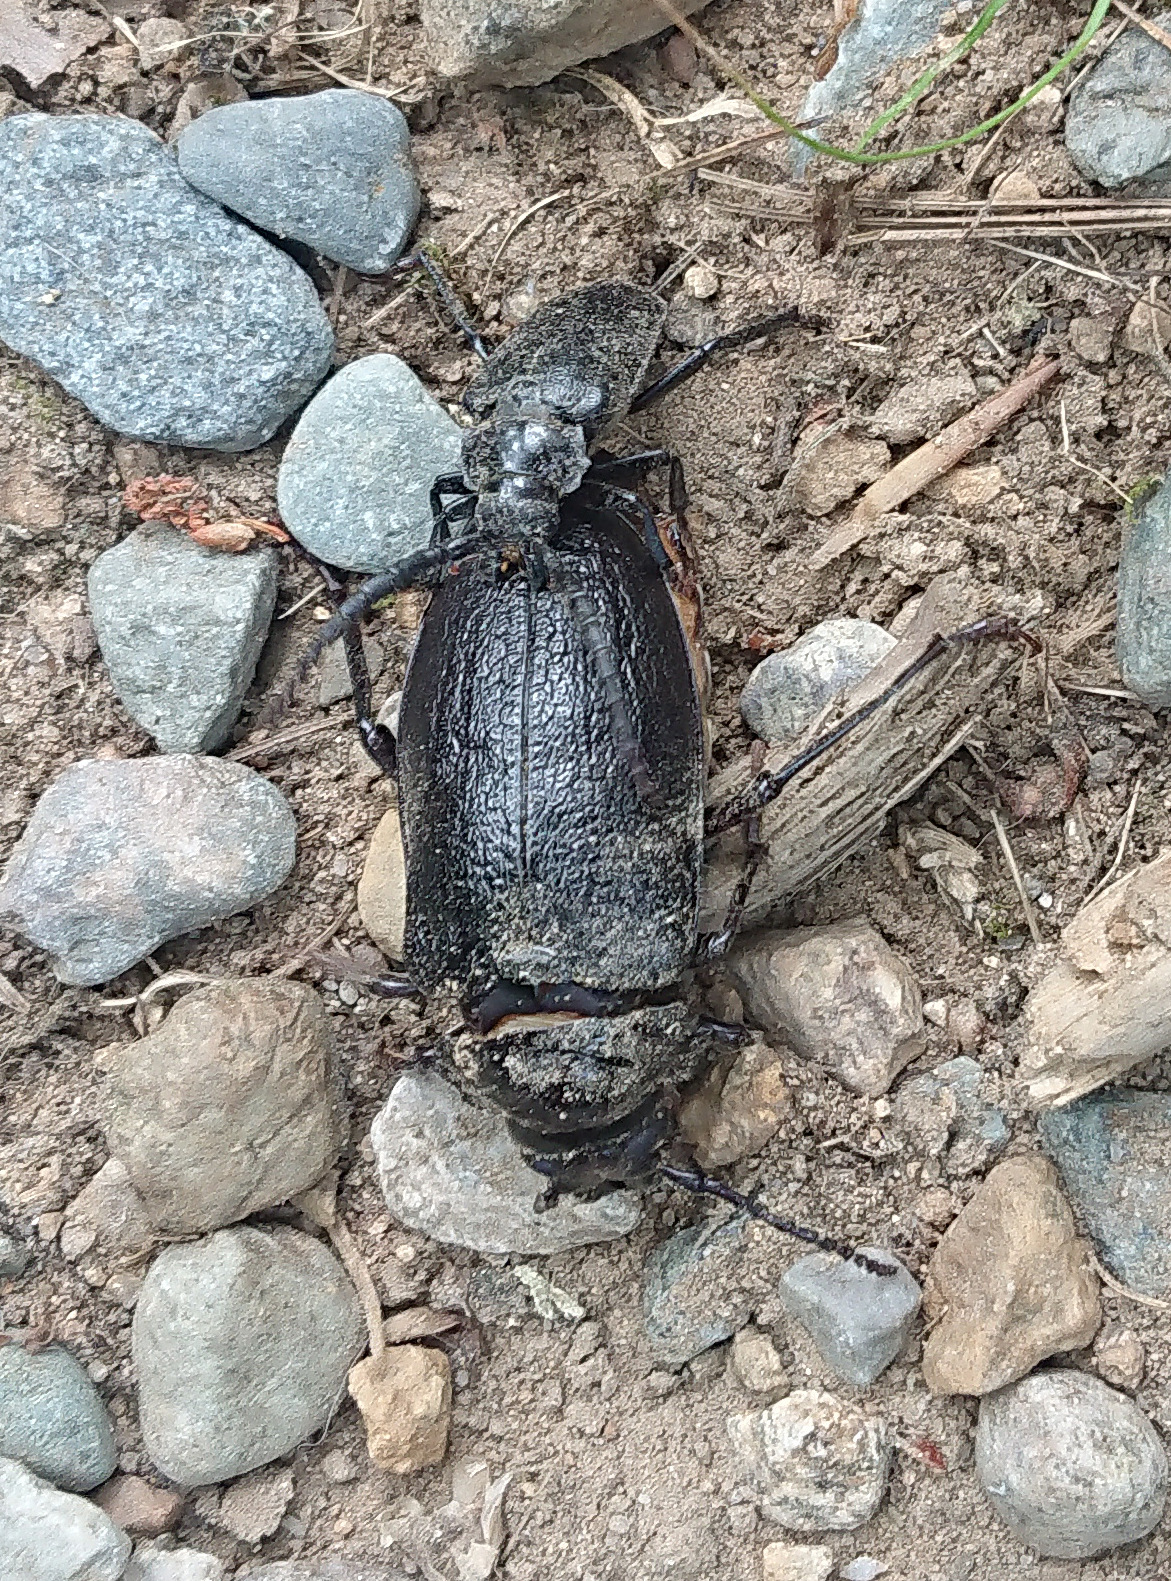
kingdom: Animalia
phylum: Arthropoda
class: Insecta
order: Coleoptera
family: Cerambycidae
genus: Prionus
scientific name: Prionus laticollis
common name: Broad necked prionus
